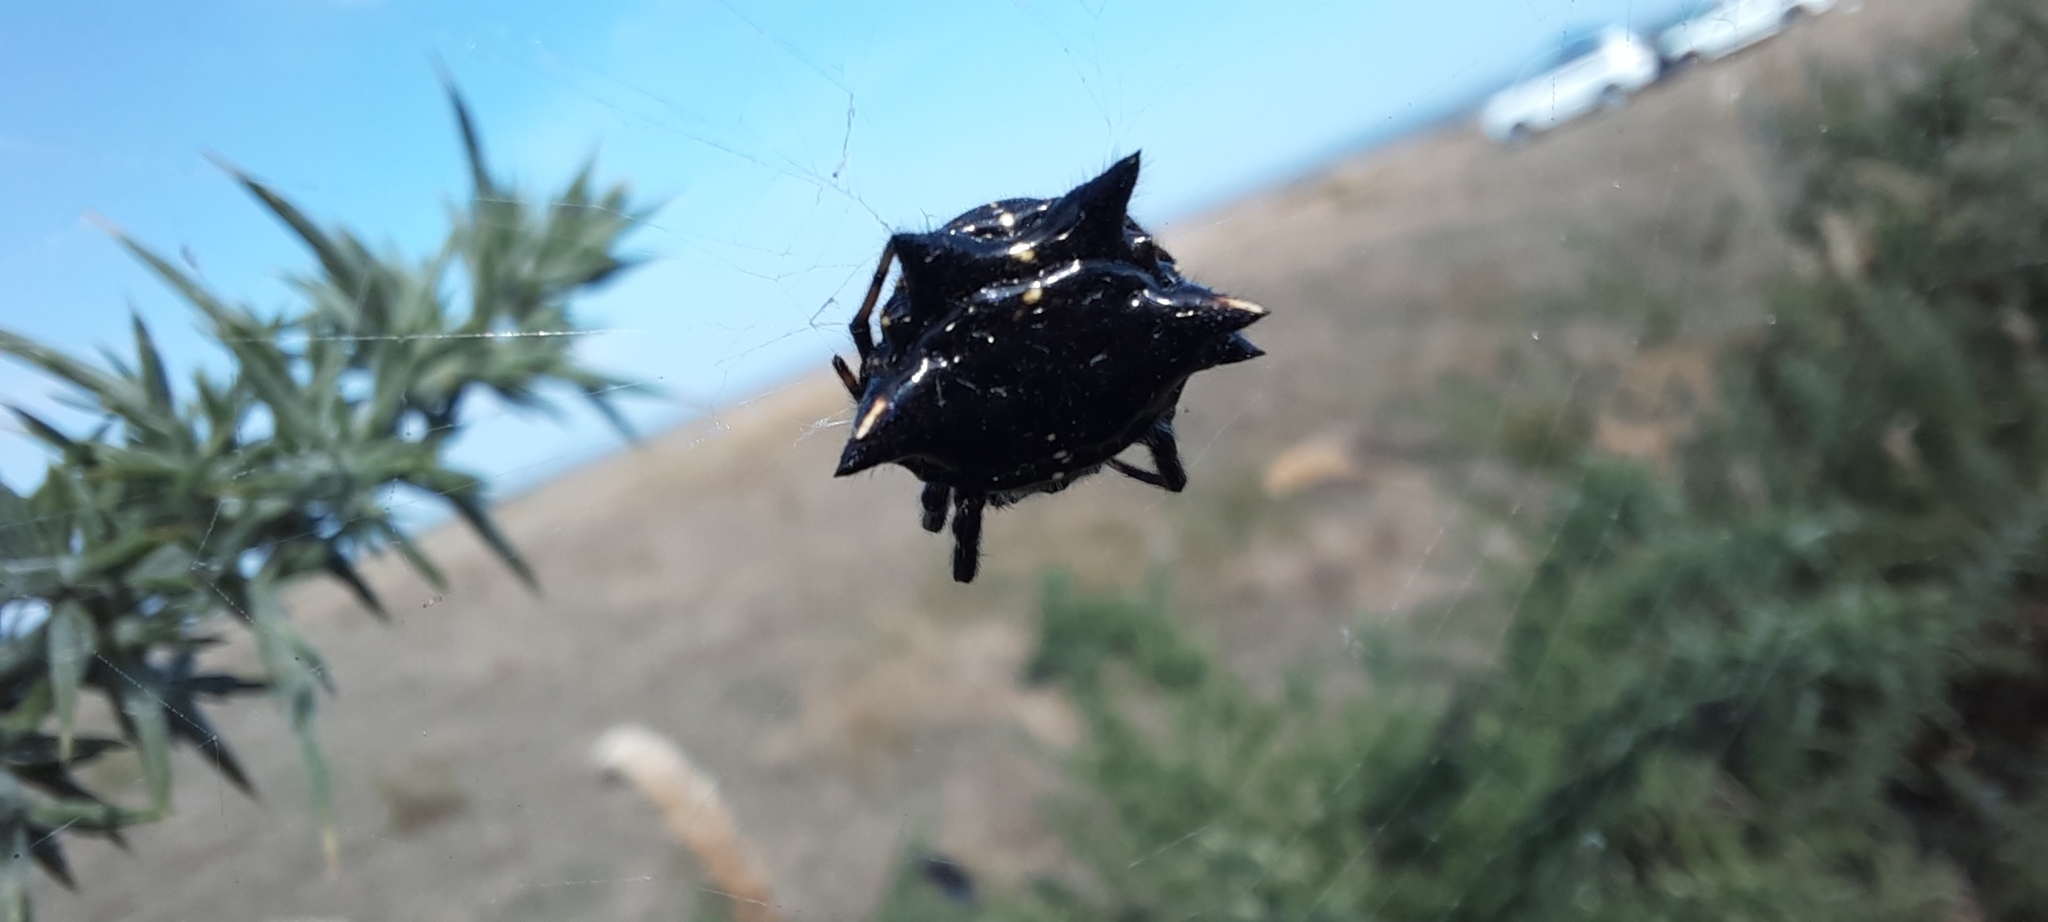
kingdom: Animalia
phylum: Arthropoda
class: Arachnida
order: Araneae
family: Araneidae
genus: Austracantha
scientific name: Austracantha minax
